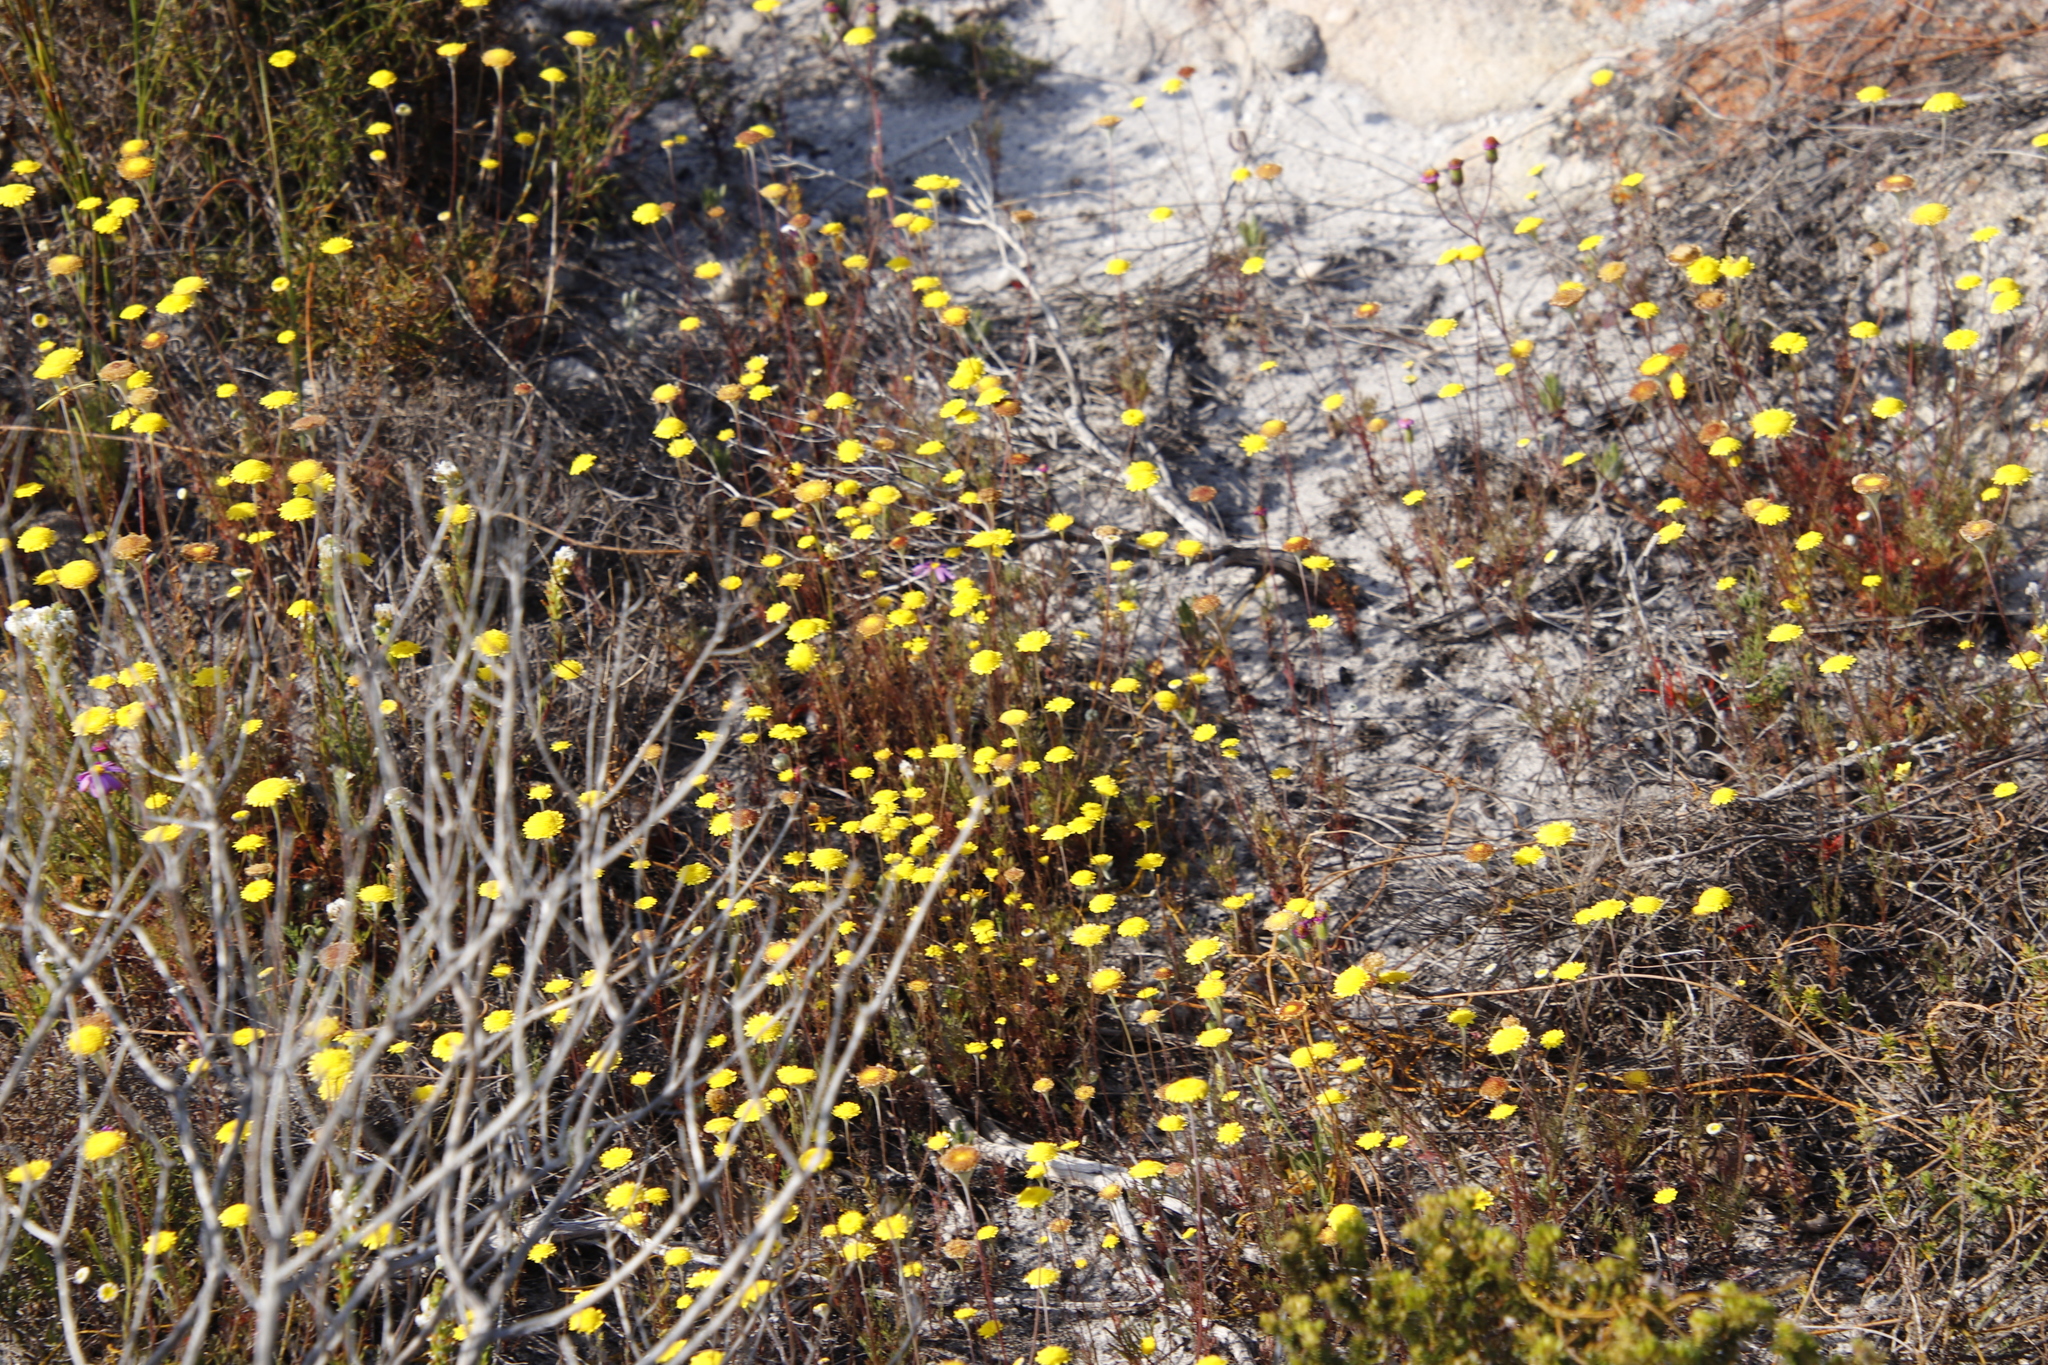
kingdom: Plantae
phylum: Tracheophyta
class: Magnoliopsida
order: Asterales
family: Asteraceae
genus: Cotula
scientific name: Cotula pruinosa
